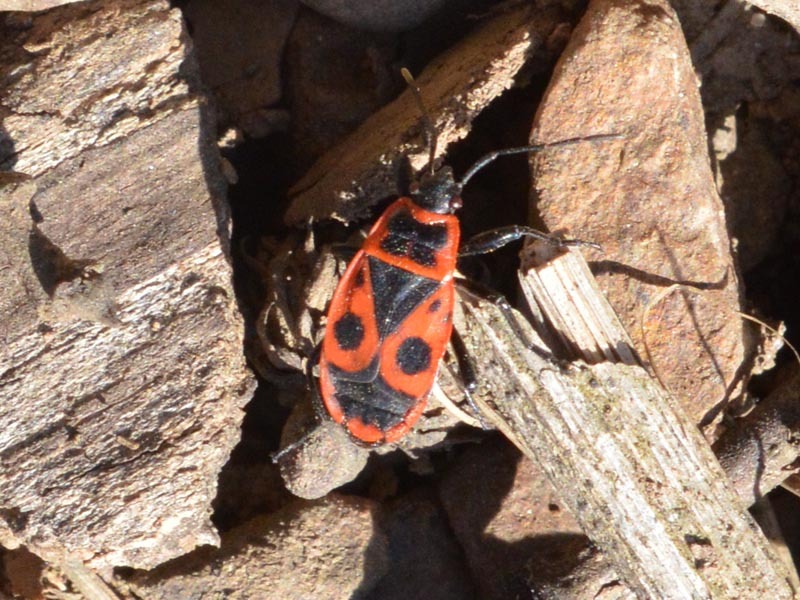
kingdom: Animalia
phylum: Arthropoda
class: Insecta
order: Hemiptera
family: Pyrrhocoridae
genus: Pyrrhocoris
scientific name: Pyrrhocoris apterus
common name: Firebug
